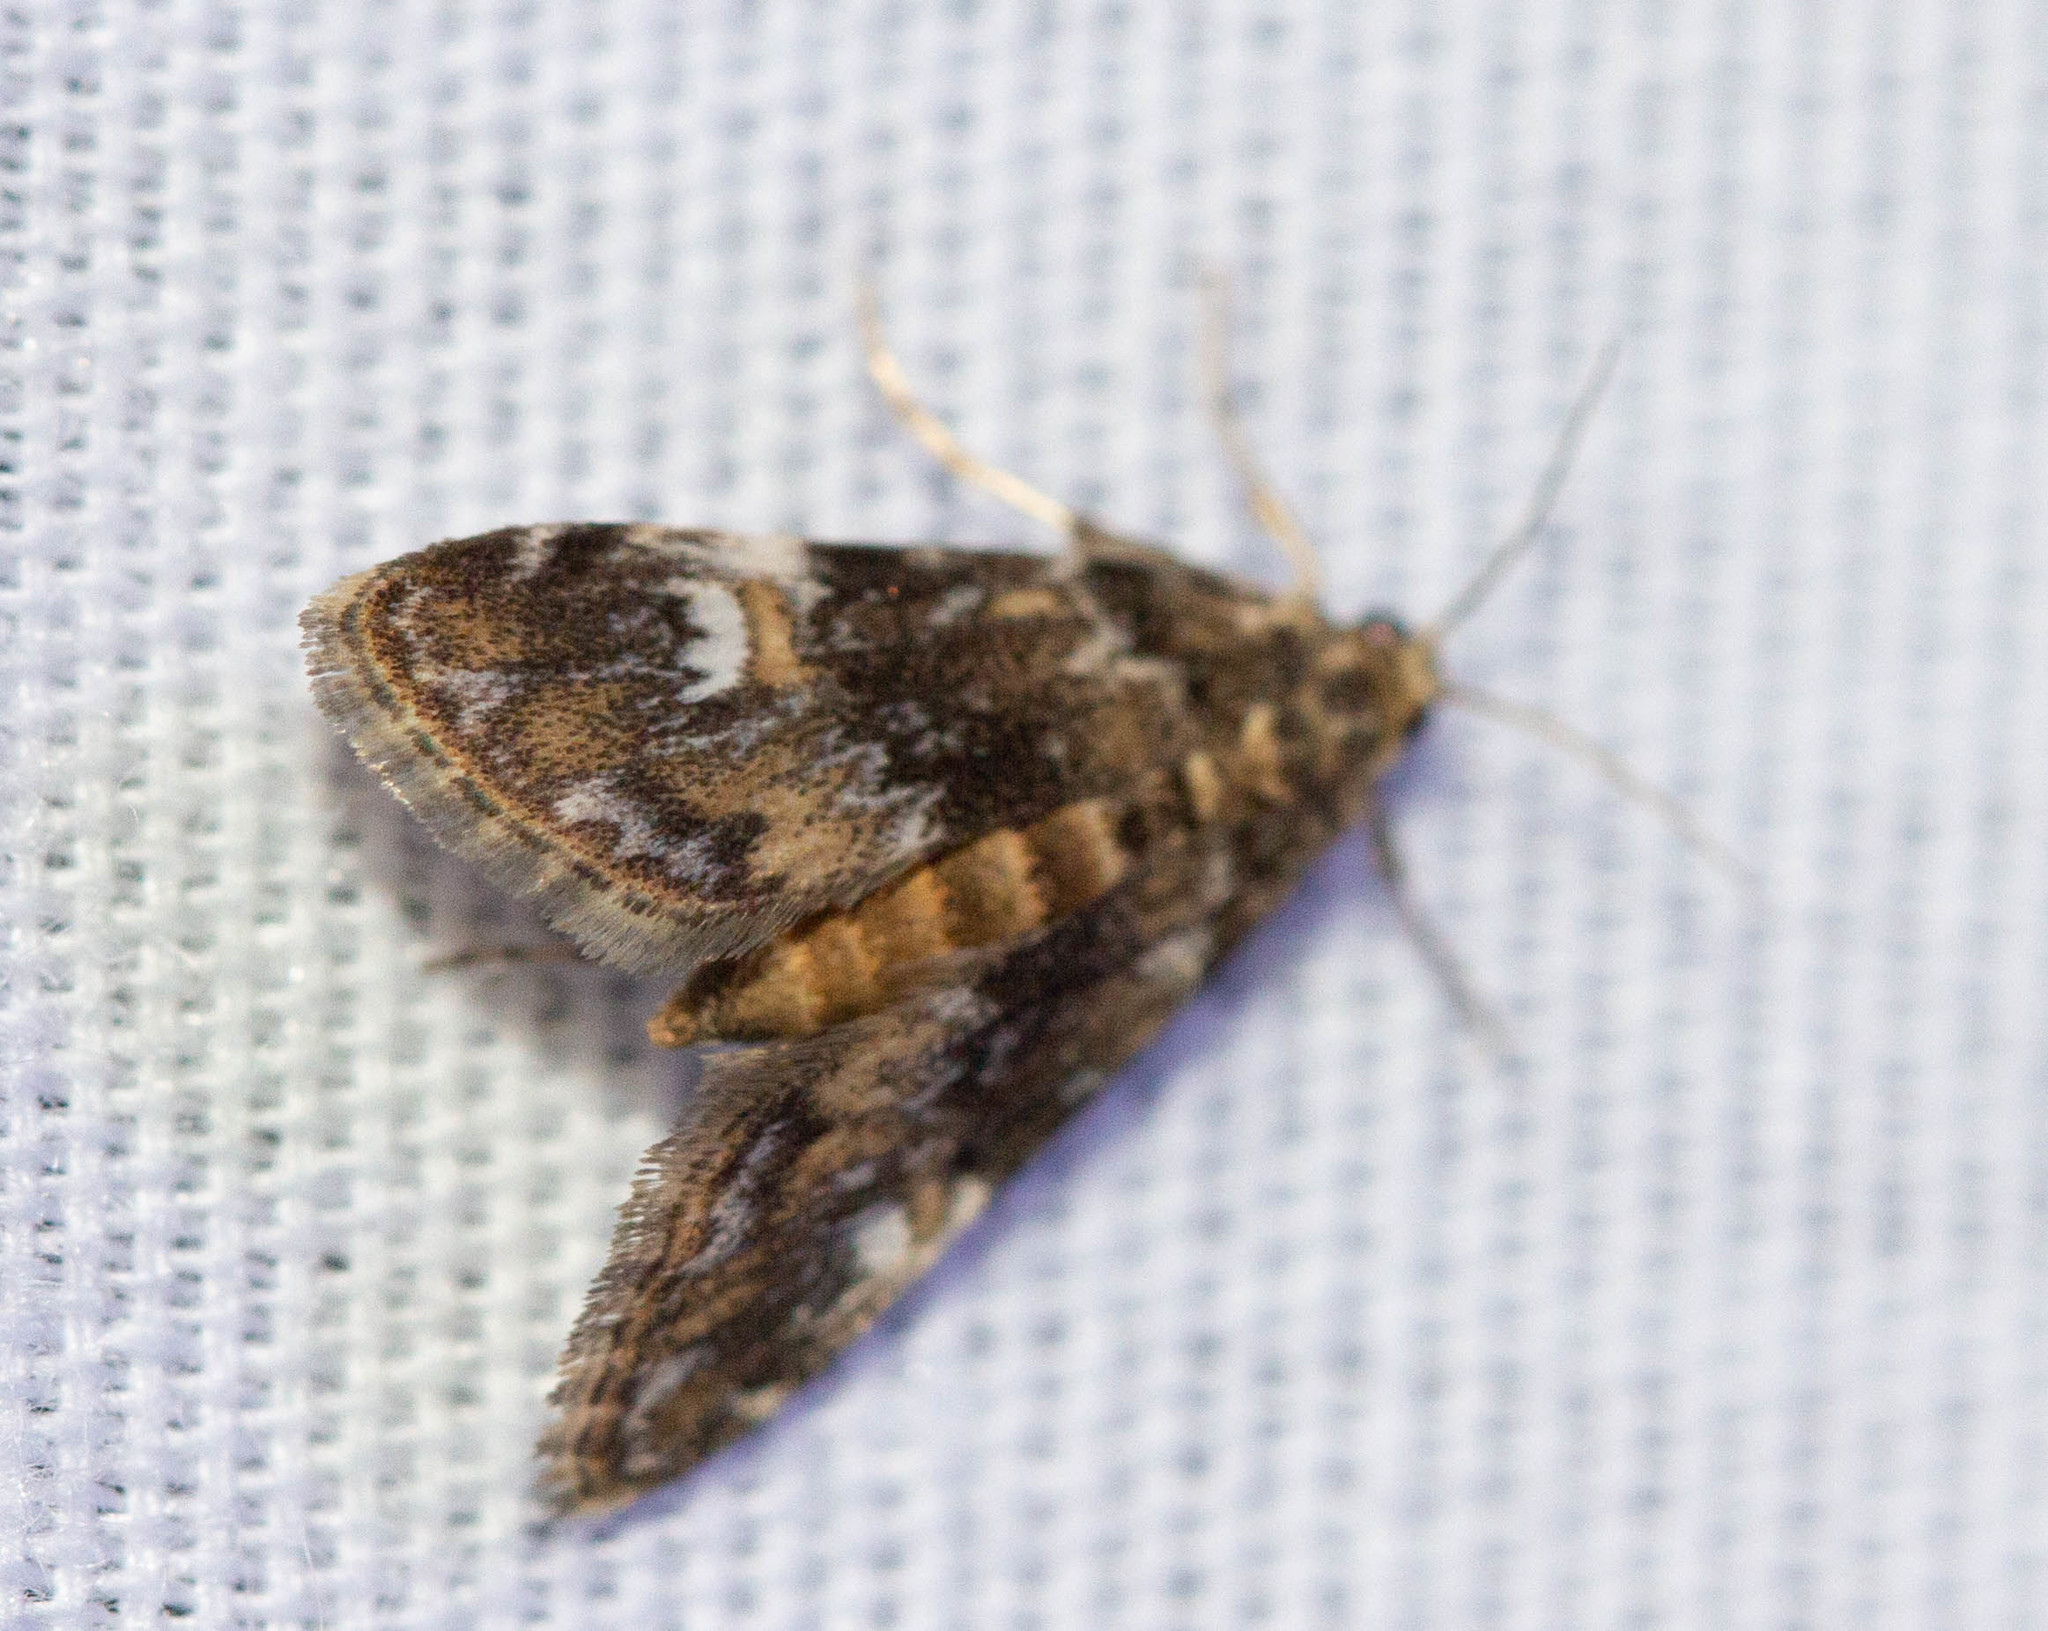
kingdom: Animalia
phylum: Arthropoda
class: Insecta
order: Lepidoptera
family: Crambidae
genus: Elophila
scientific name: Elophila obliteralis
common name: Waterlily leafcutter moth
